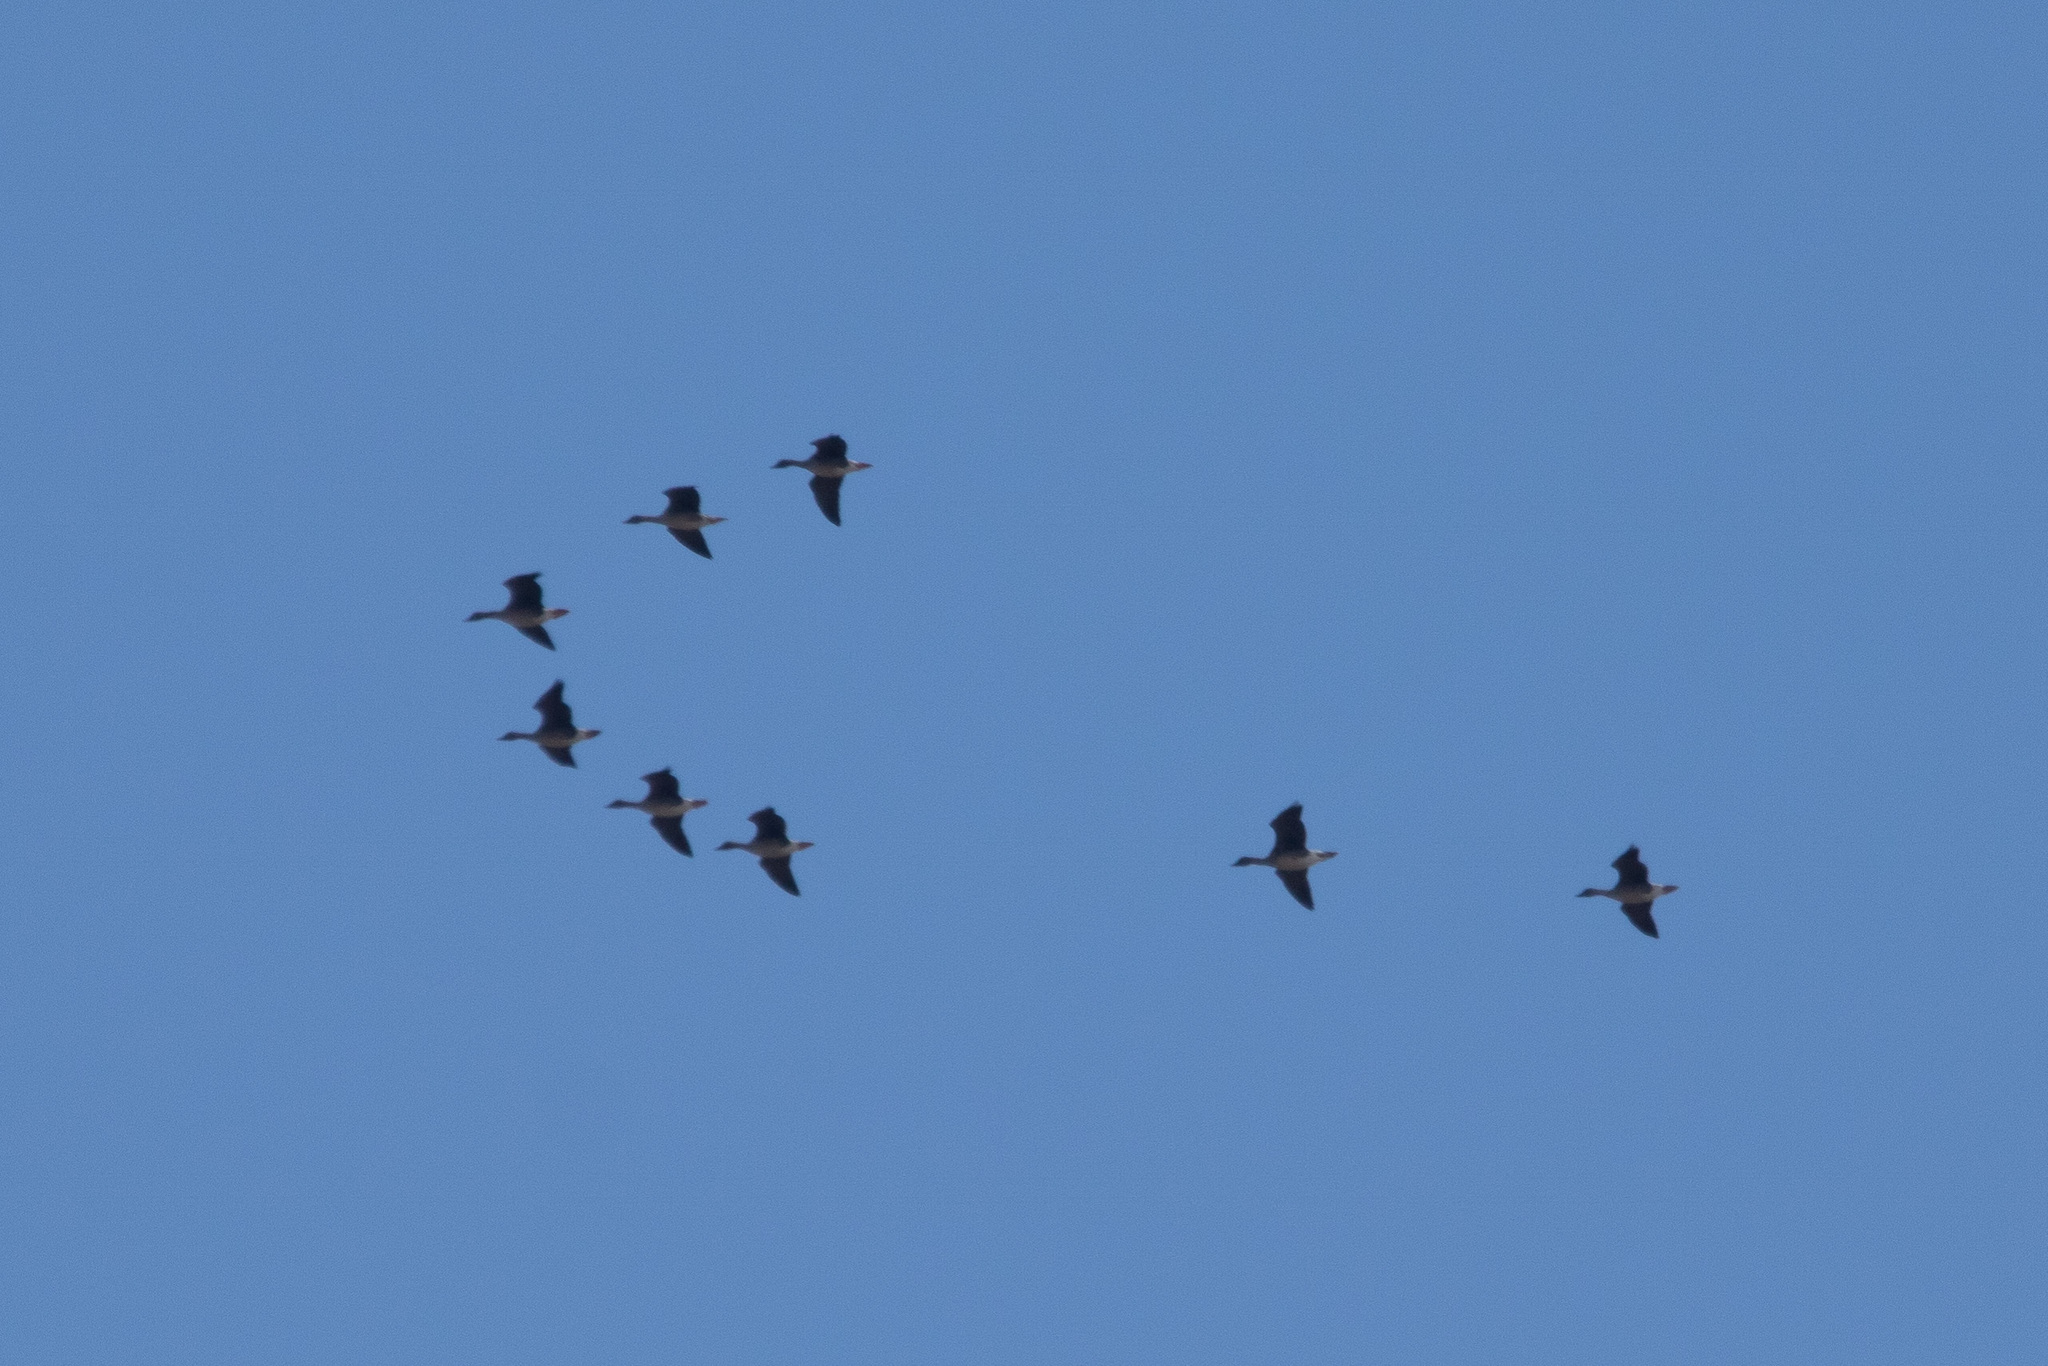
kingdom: Animalia
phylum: Chordata
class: Aves
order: Anseriformes
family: Anatidae
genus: Anser
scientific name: Anser fabalis
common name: Bean goose
